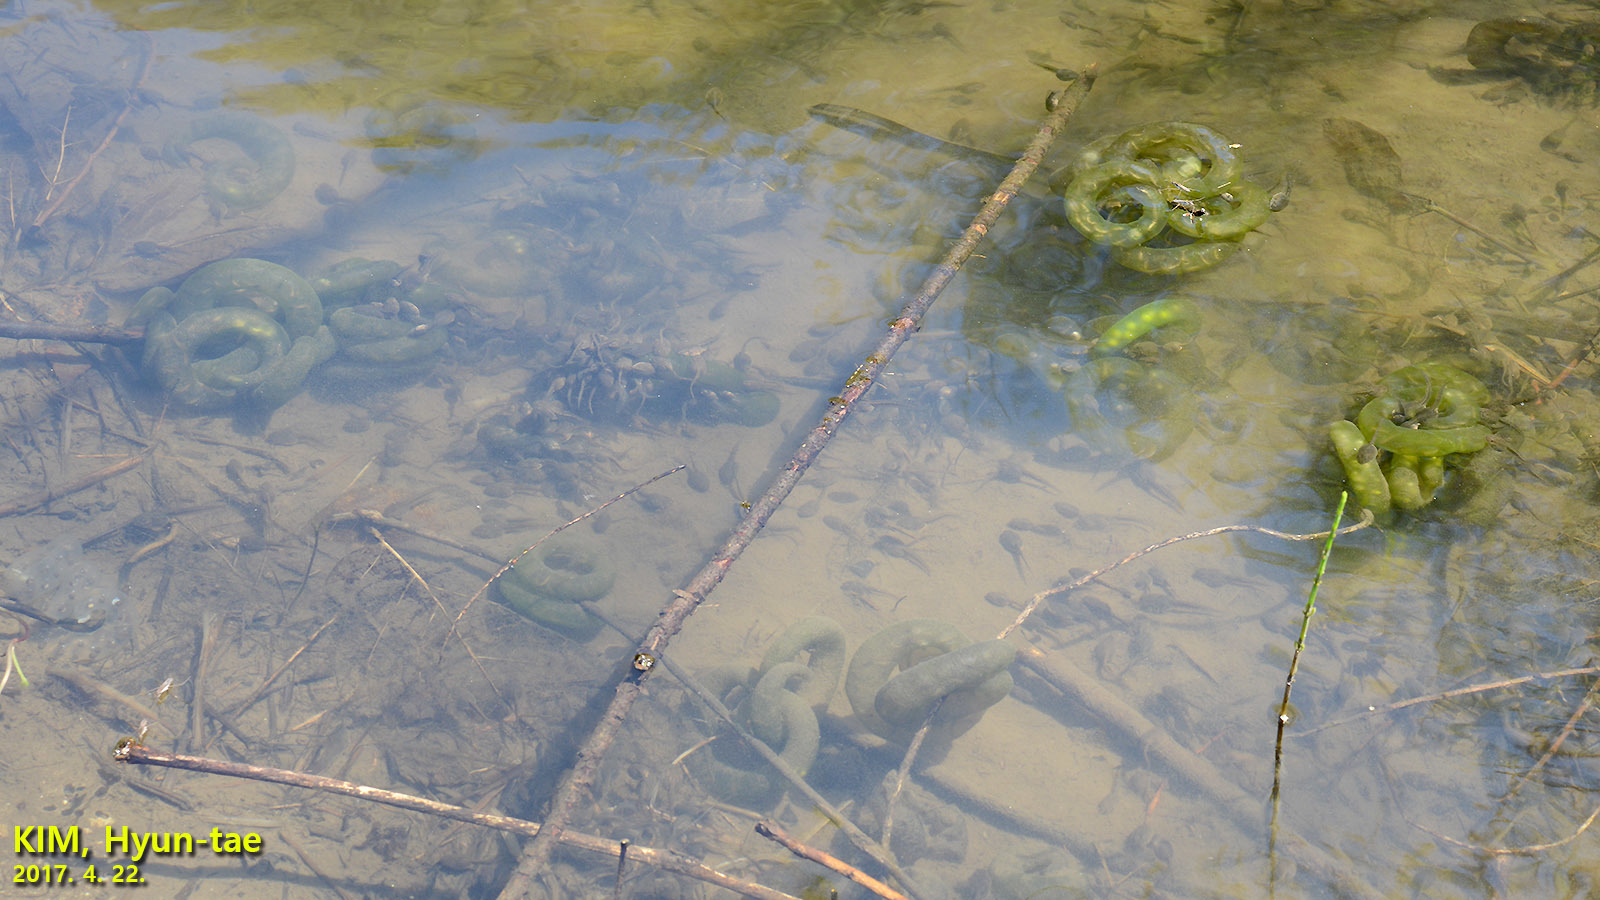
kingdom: Animalia
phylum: Chordata
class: Amphibia
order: Caudata
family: Hynobiidae
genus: Hynobius
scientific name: Hynobius leechii
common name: Gensan salamander
